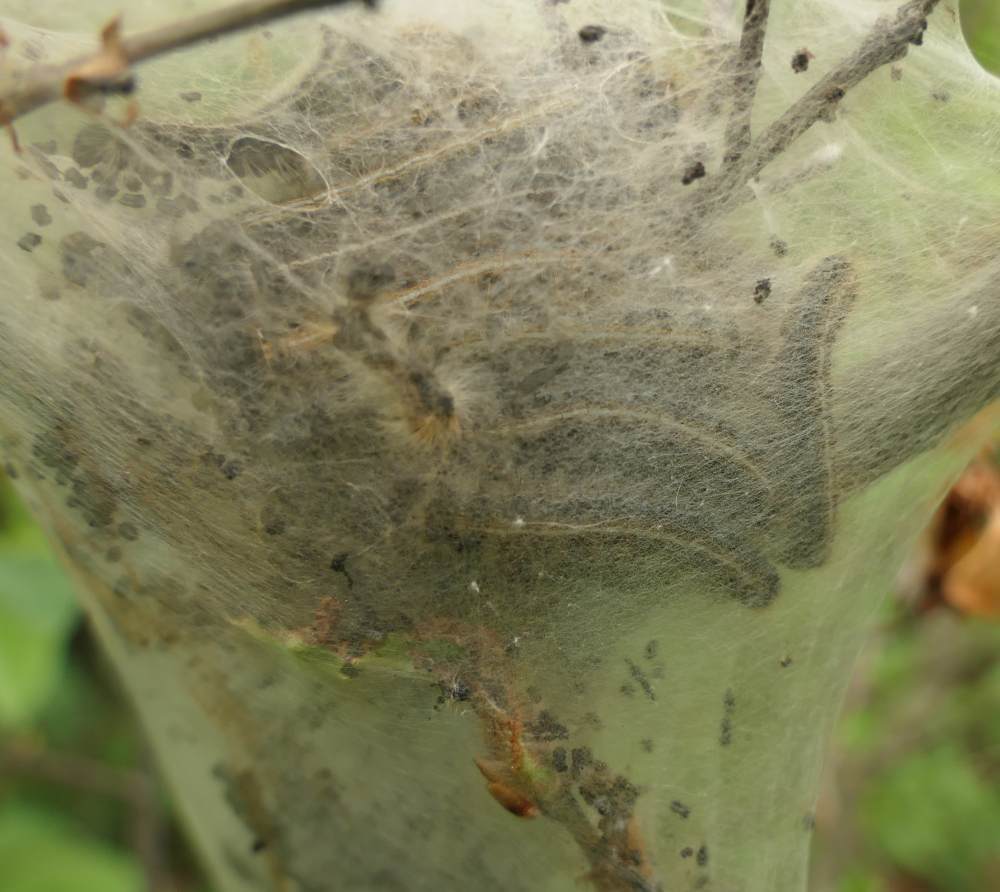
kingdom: Animalia
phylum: Arthropoda
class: Insecta
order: Lepidoptera
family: Lasiocampidae
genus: Malacosoma
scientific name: Malacosoma americana
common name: Eastern tent caterpillar moth
